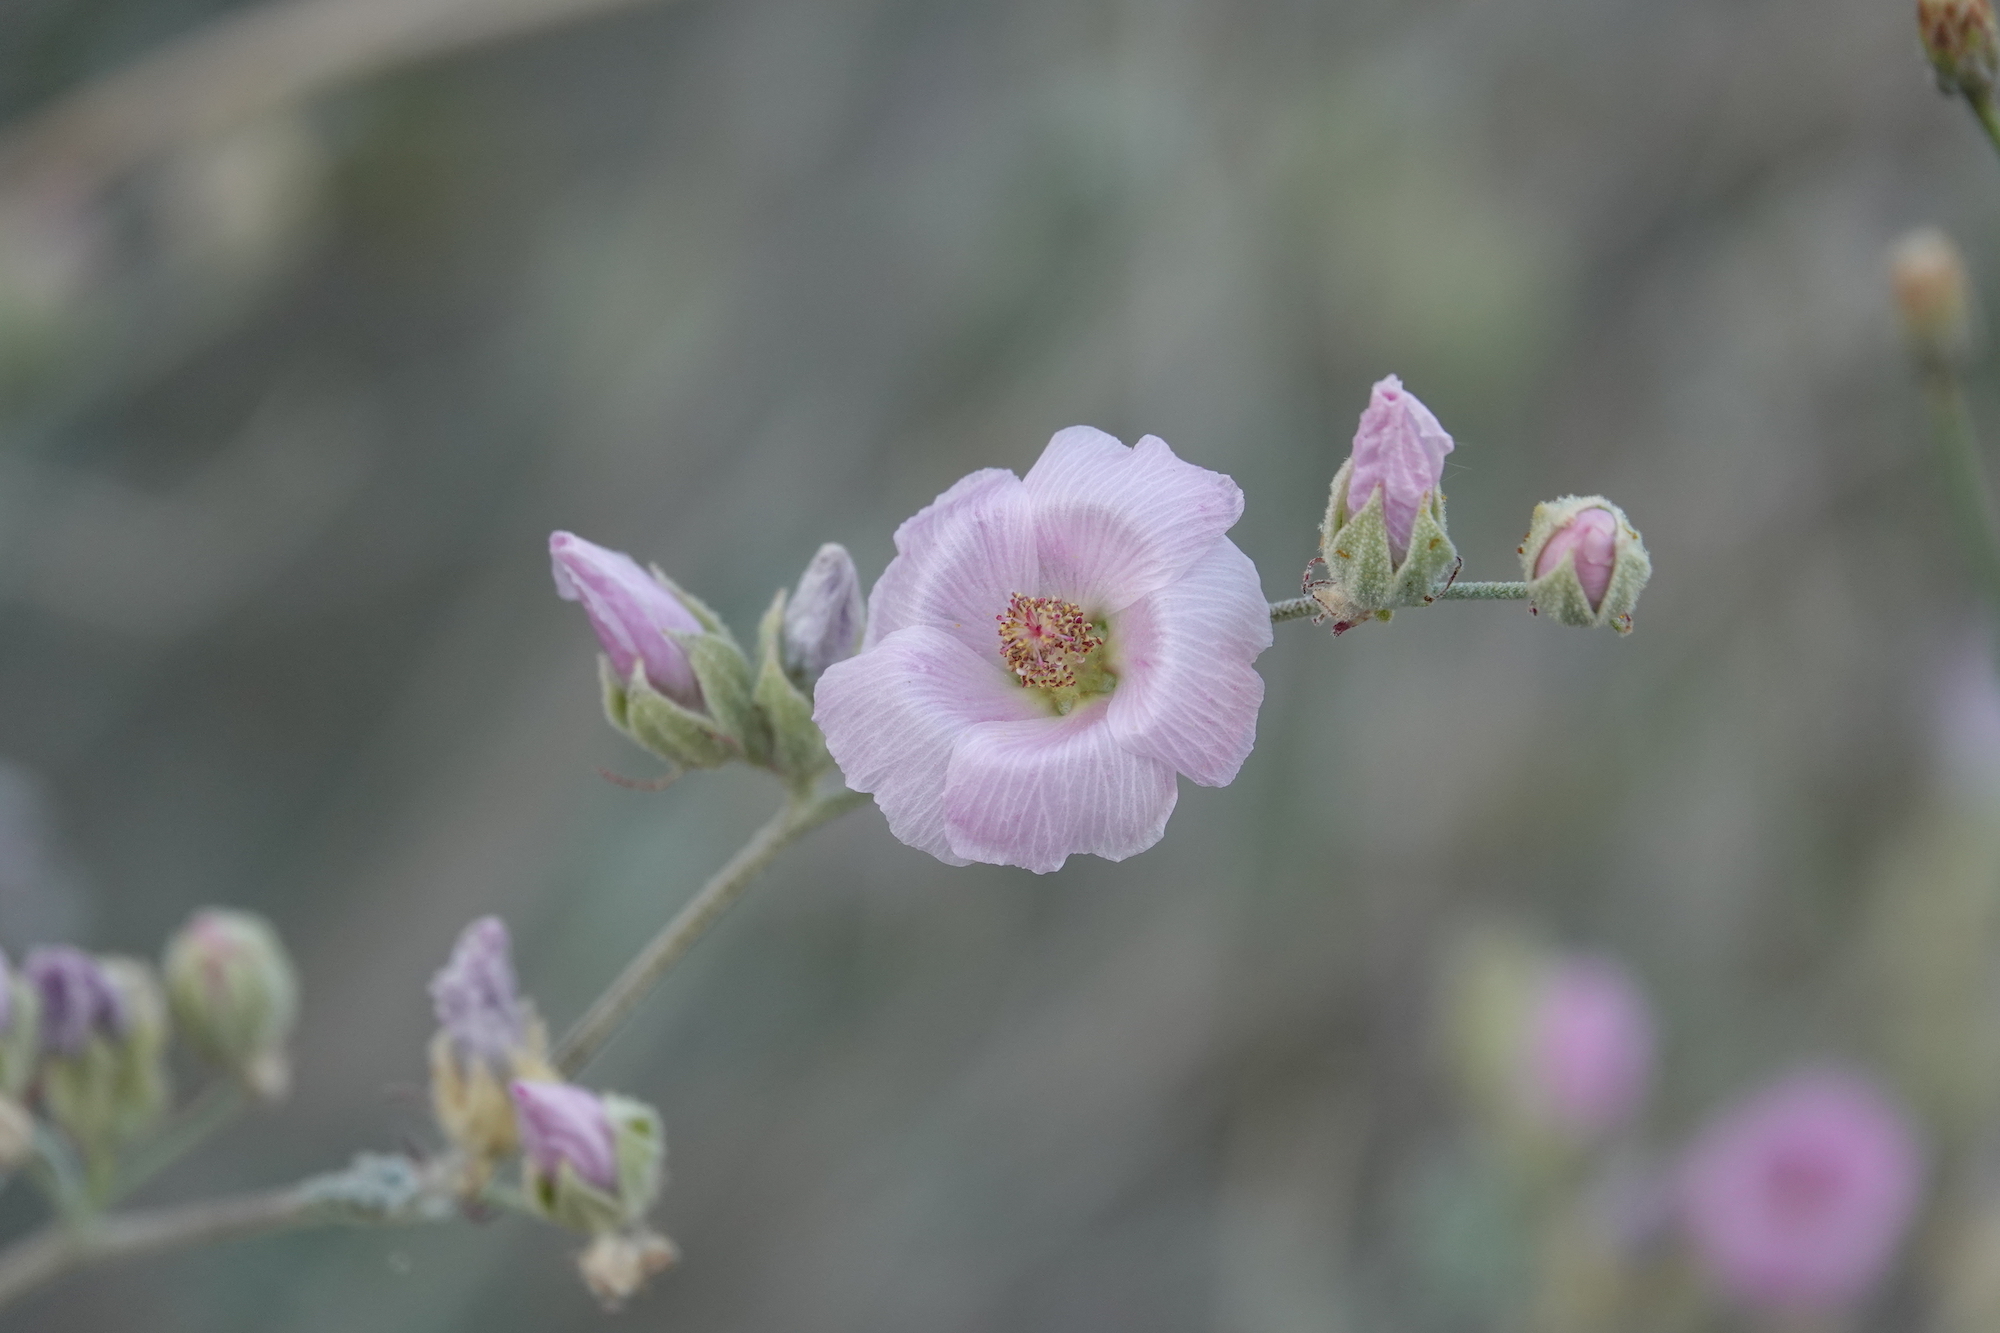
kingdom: Plantae
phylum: Tracheophyta
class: Magnoliopsida
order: Malvales
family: Malvaceae
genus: Sphaeralcea
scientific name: Sphaeralcea ambigua
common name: Apricot globe-mallow
